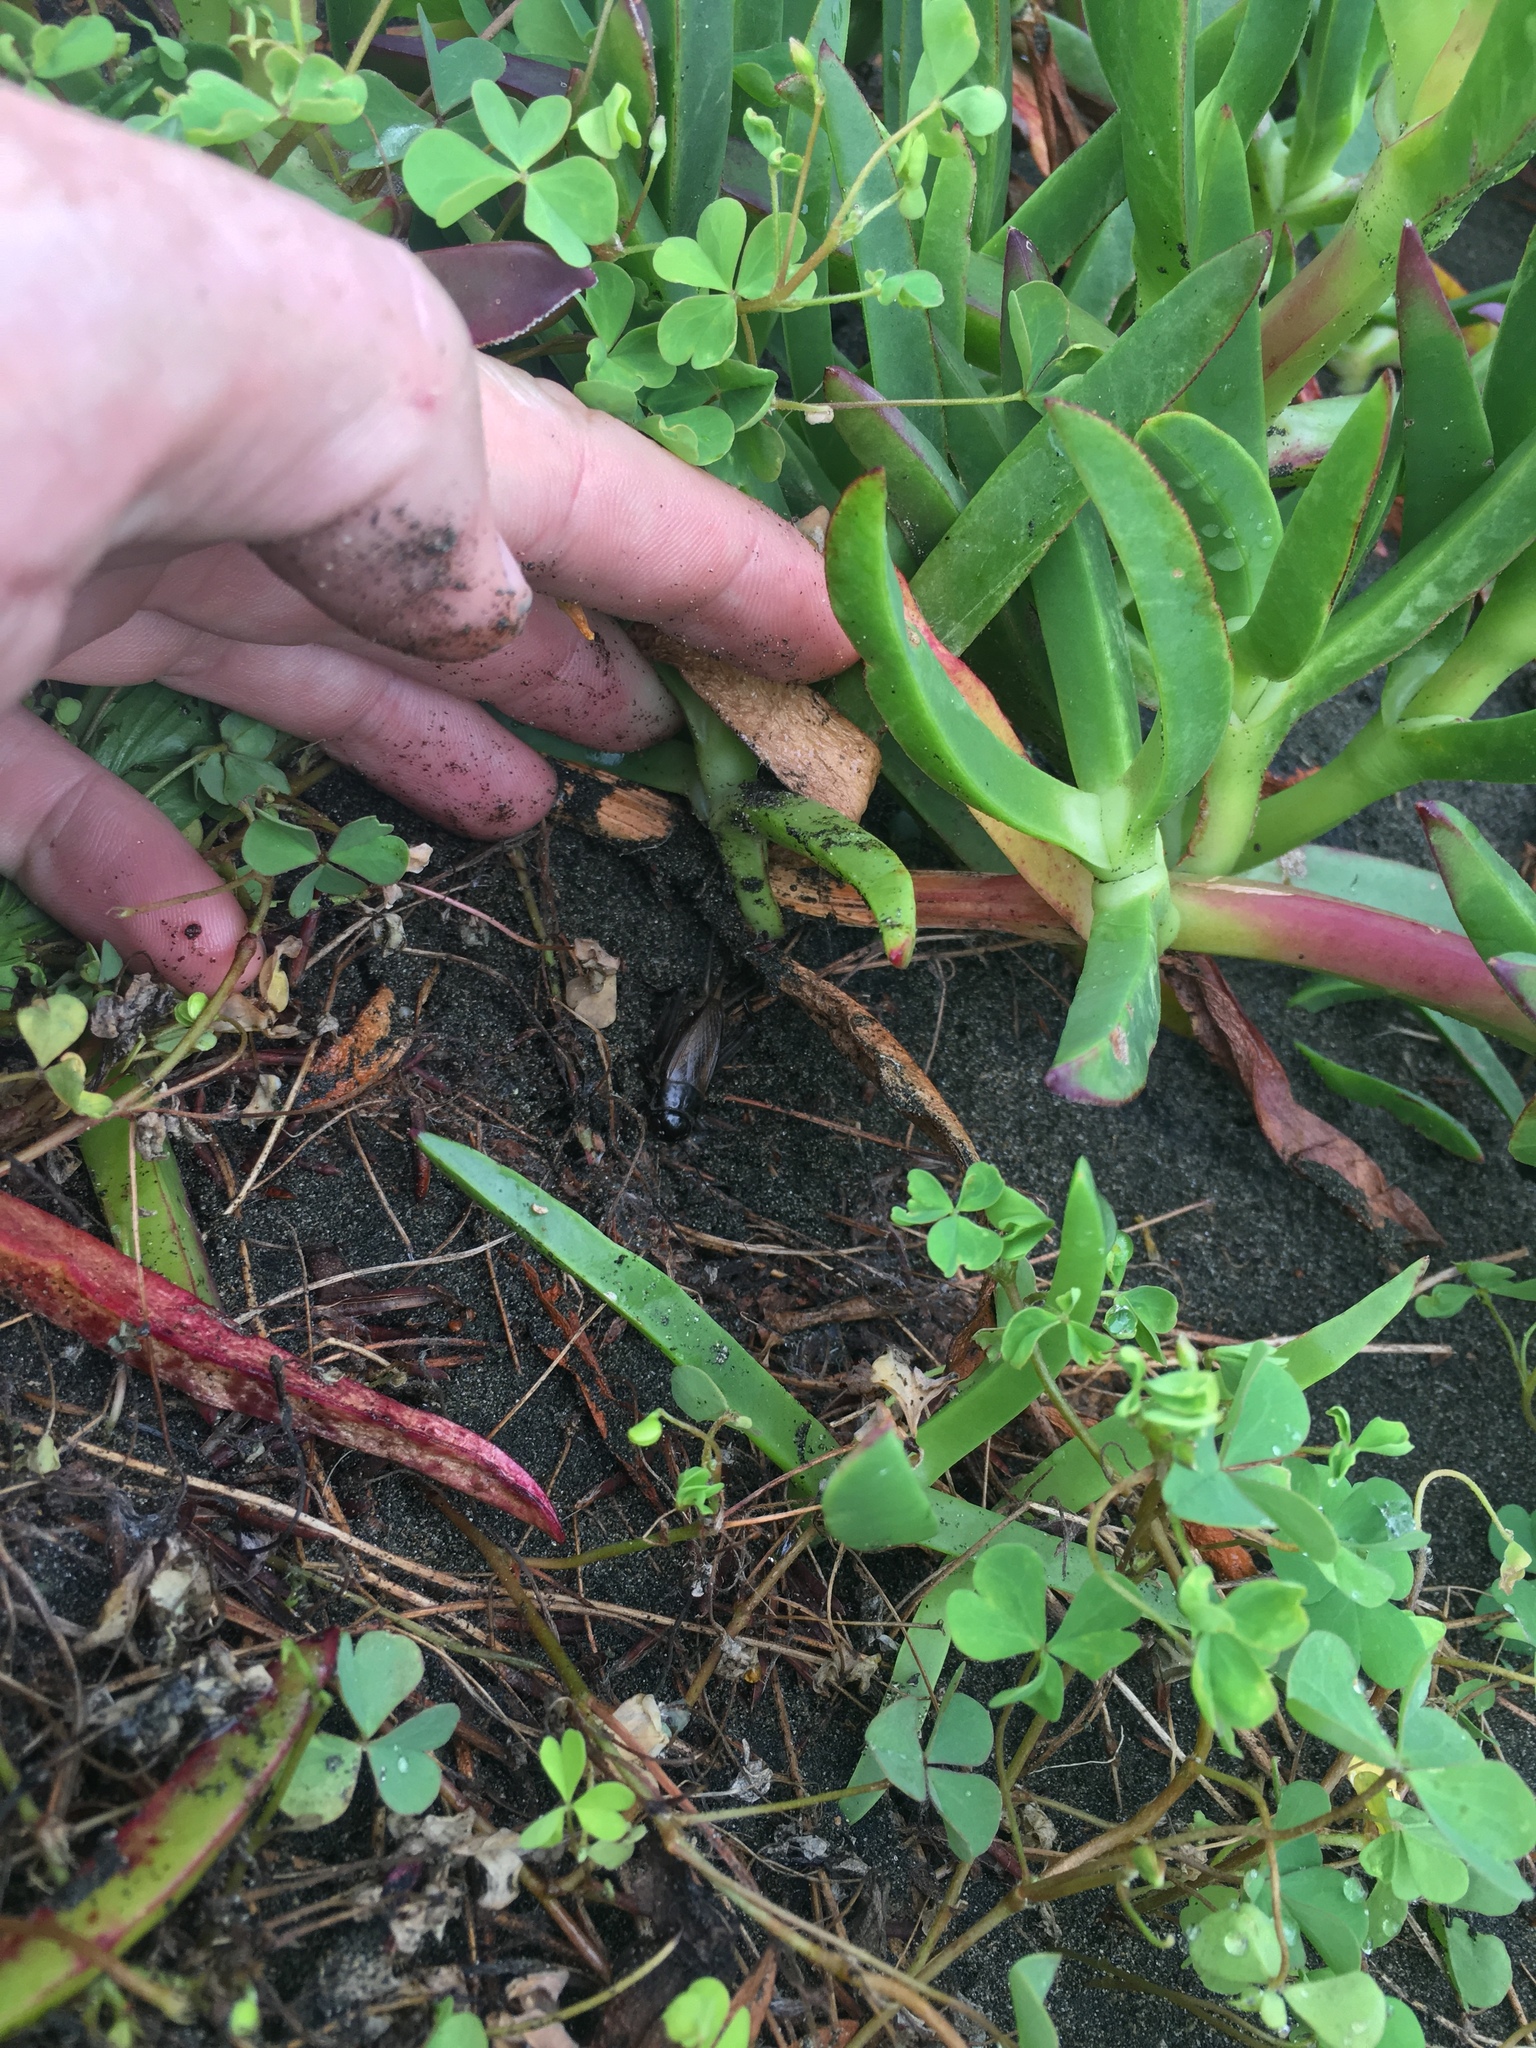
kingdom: Animalia
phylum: Arthropoda
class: Insecta
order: Orthoptera
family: Gryllidae
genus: Teleogryllus
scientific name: Teleogryllus commodus
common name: Black field cricket
